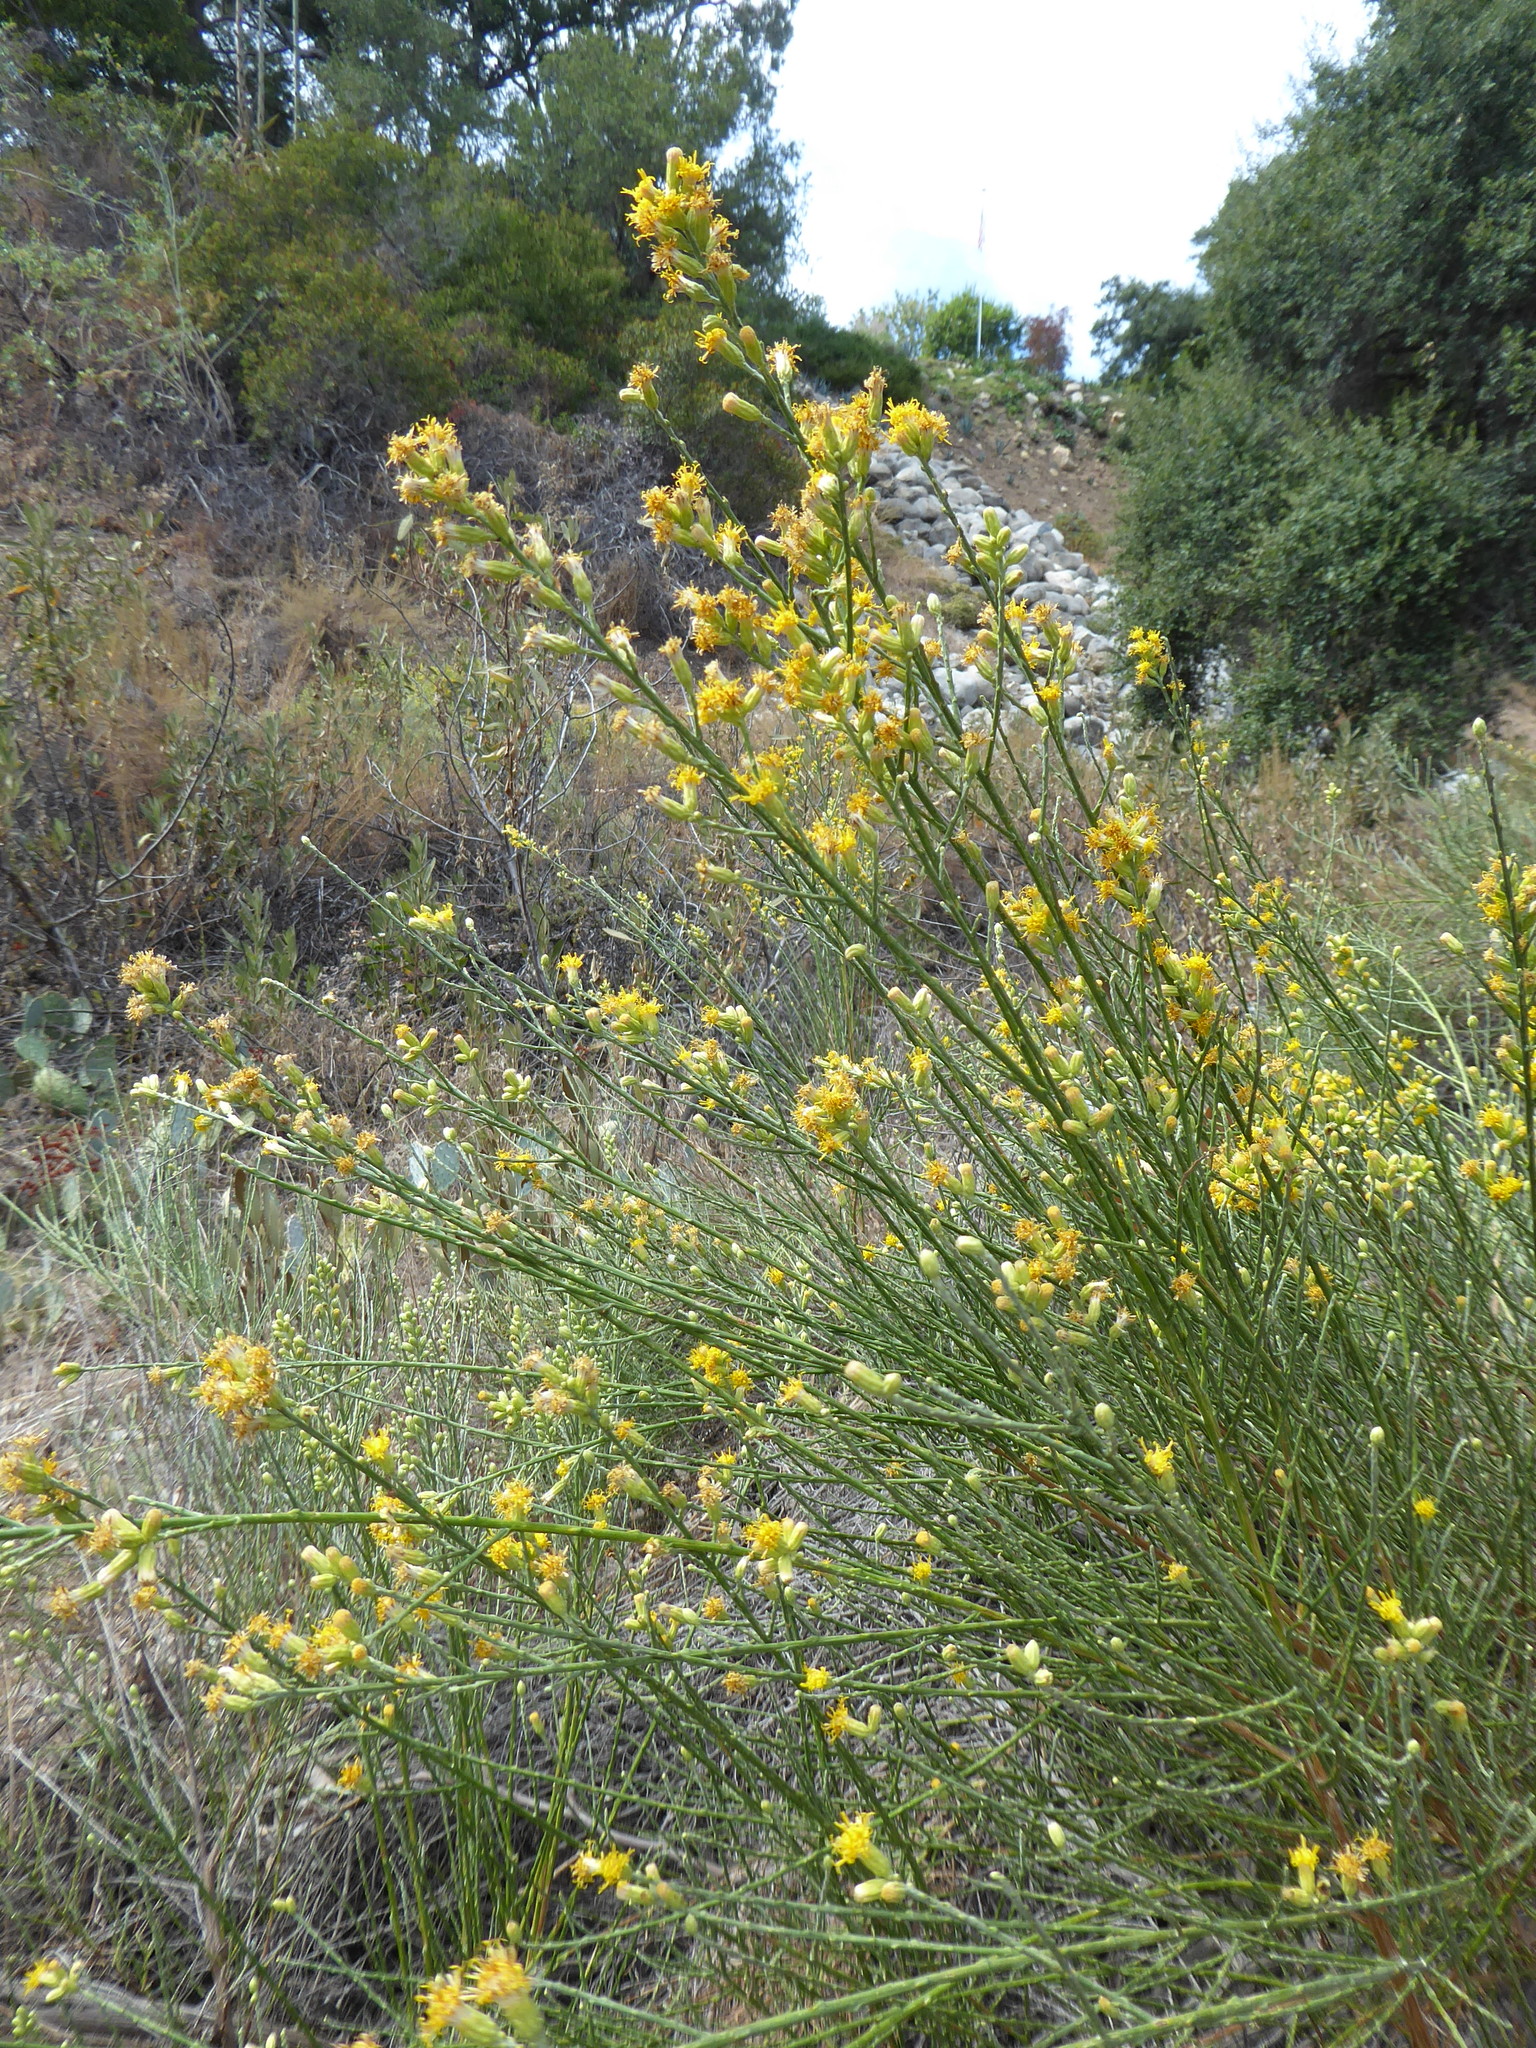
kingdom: Plantae
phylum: Tracheophyta
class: Magnoliopsida
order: Asterales
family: Asteraceae
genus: Lepidospartum
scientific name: Lepidospartum squamatum
